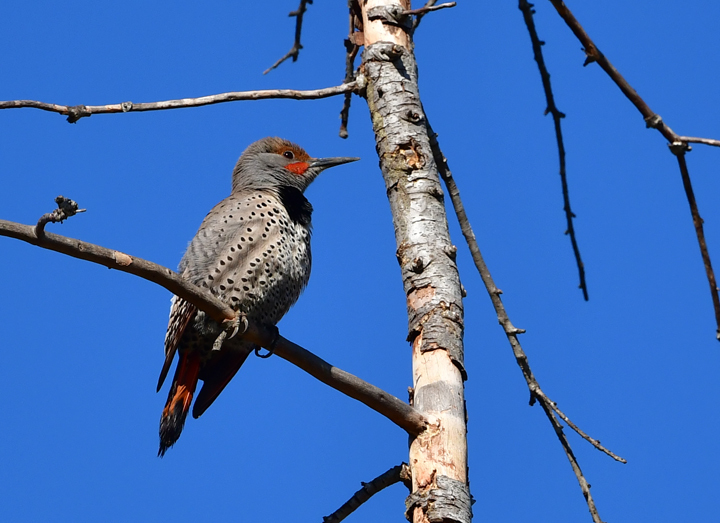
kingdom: Animalia
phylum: Chordata
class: Aves
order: Piciformes
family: Picidae
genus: Colaptes
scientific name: Colaptes auratus
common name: Northern flicker
